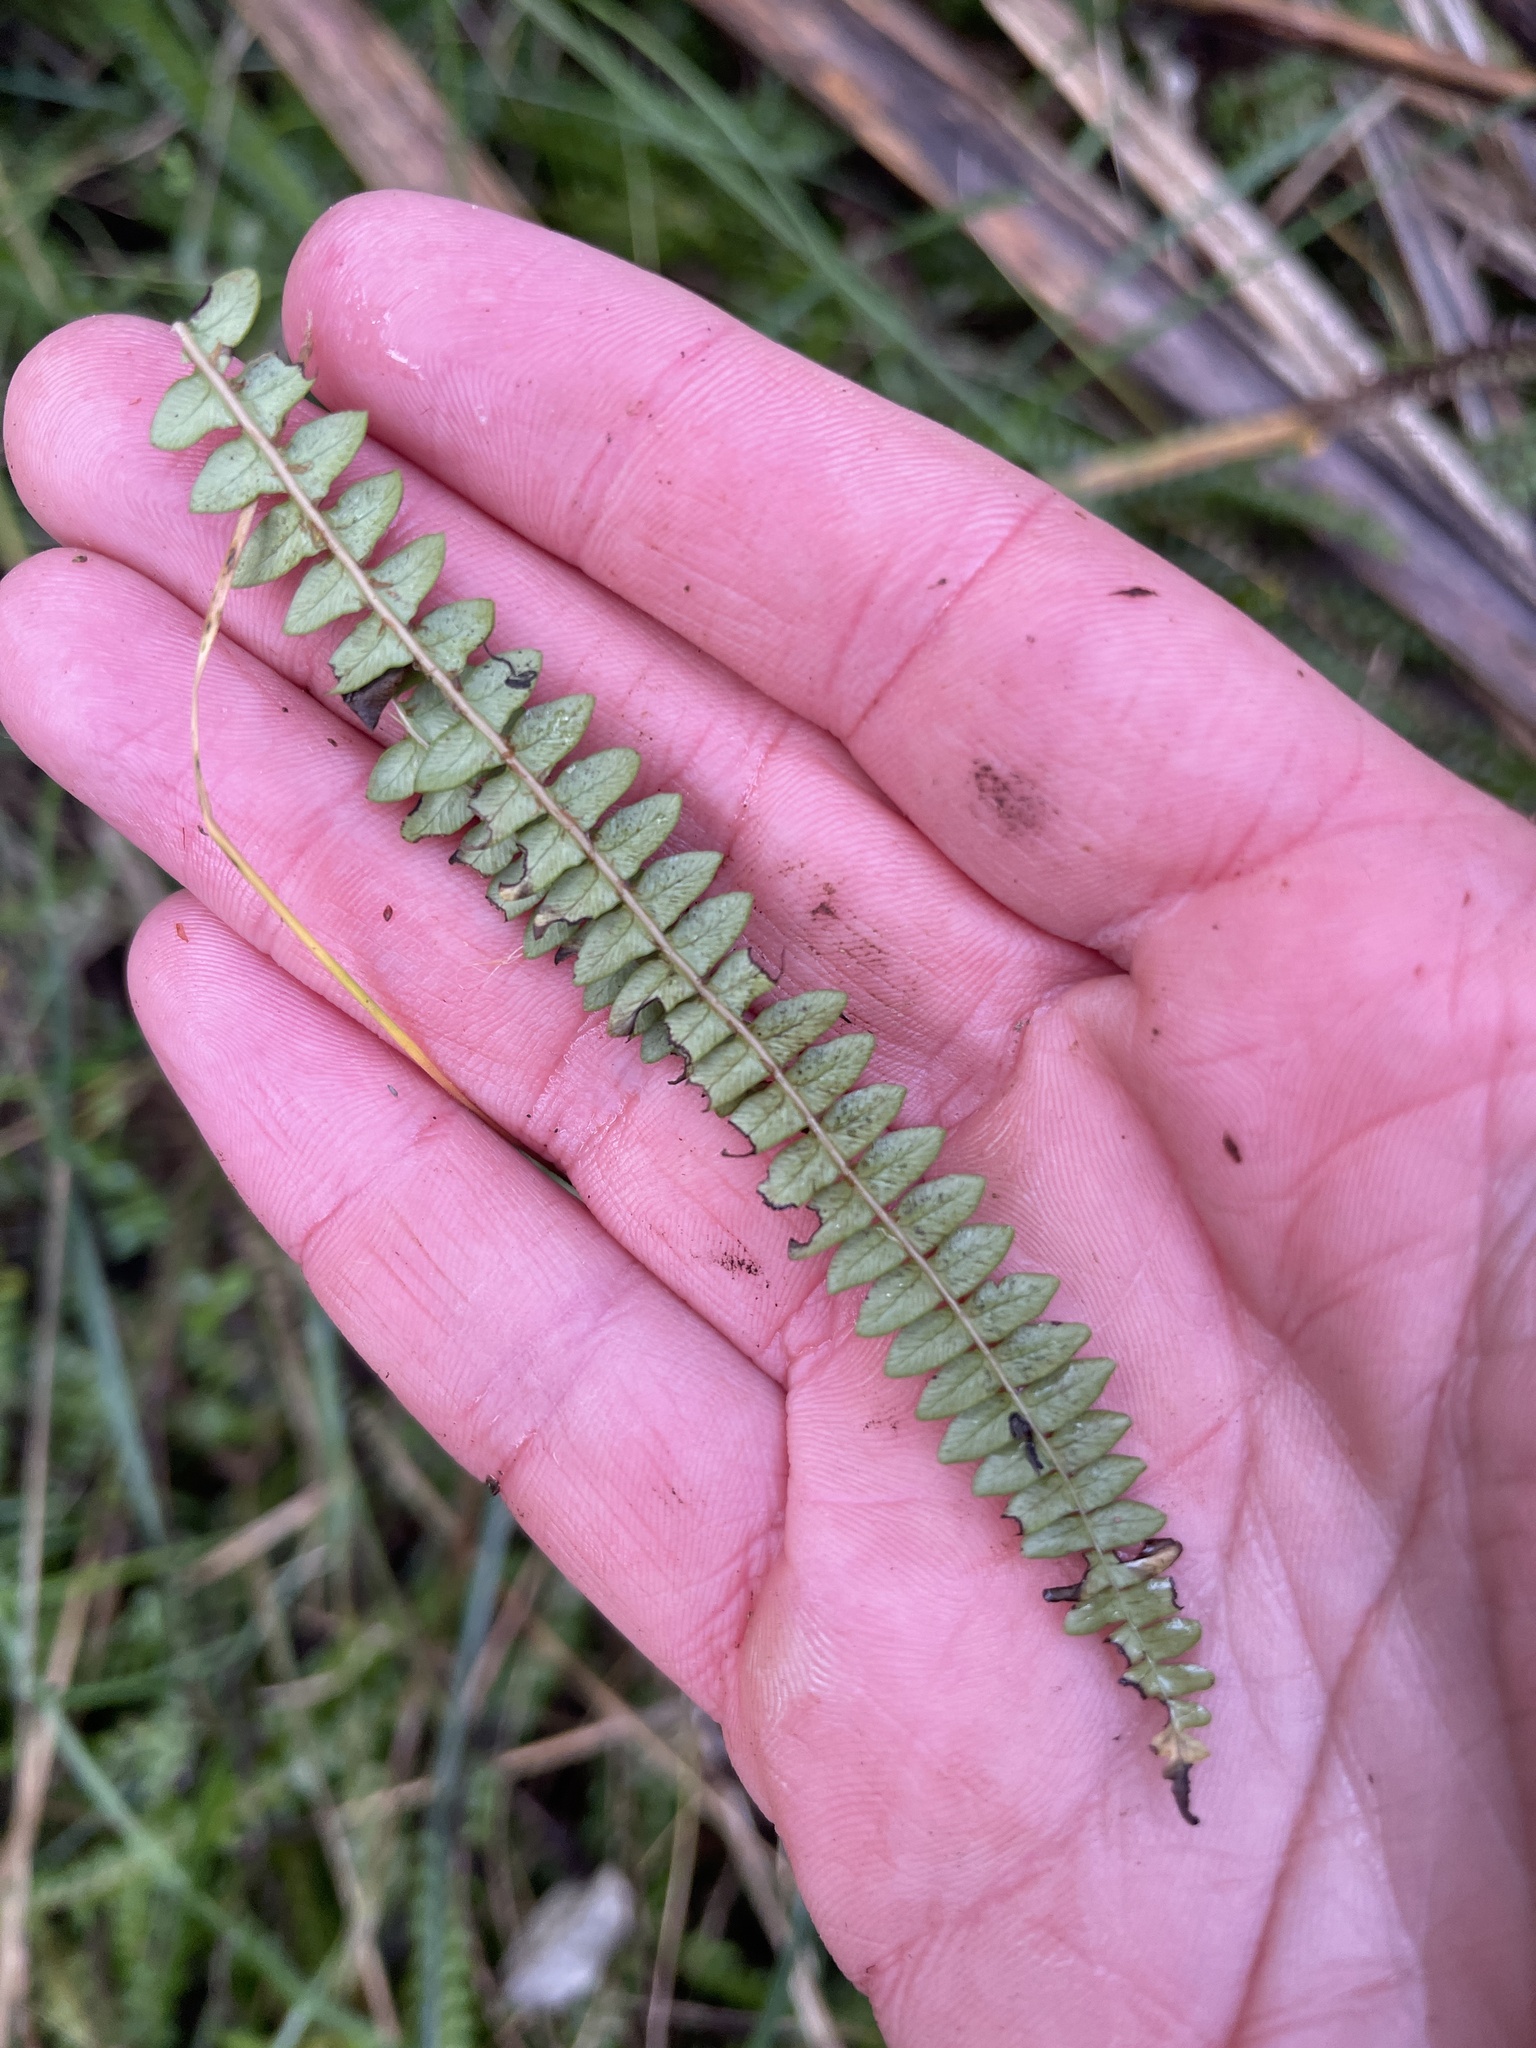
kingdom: Plantae
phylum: Tracheophyta
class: Polypodiopsida
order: Polypodiales
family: Blechnaceae
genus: Austroblechnum
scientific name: Austroblechnum penna-marina
